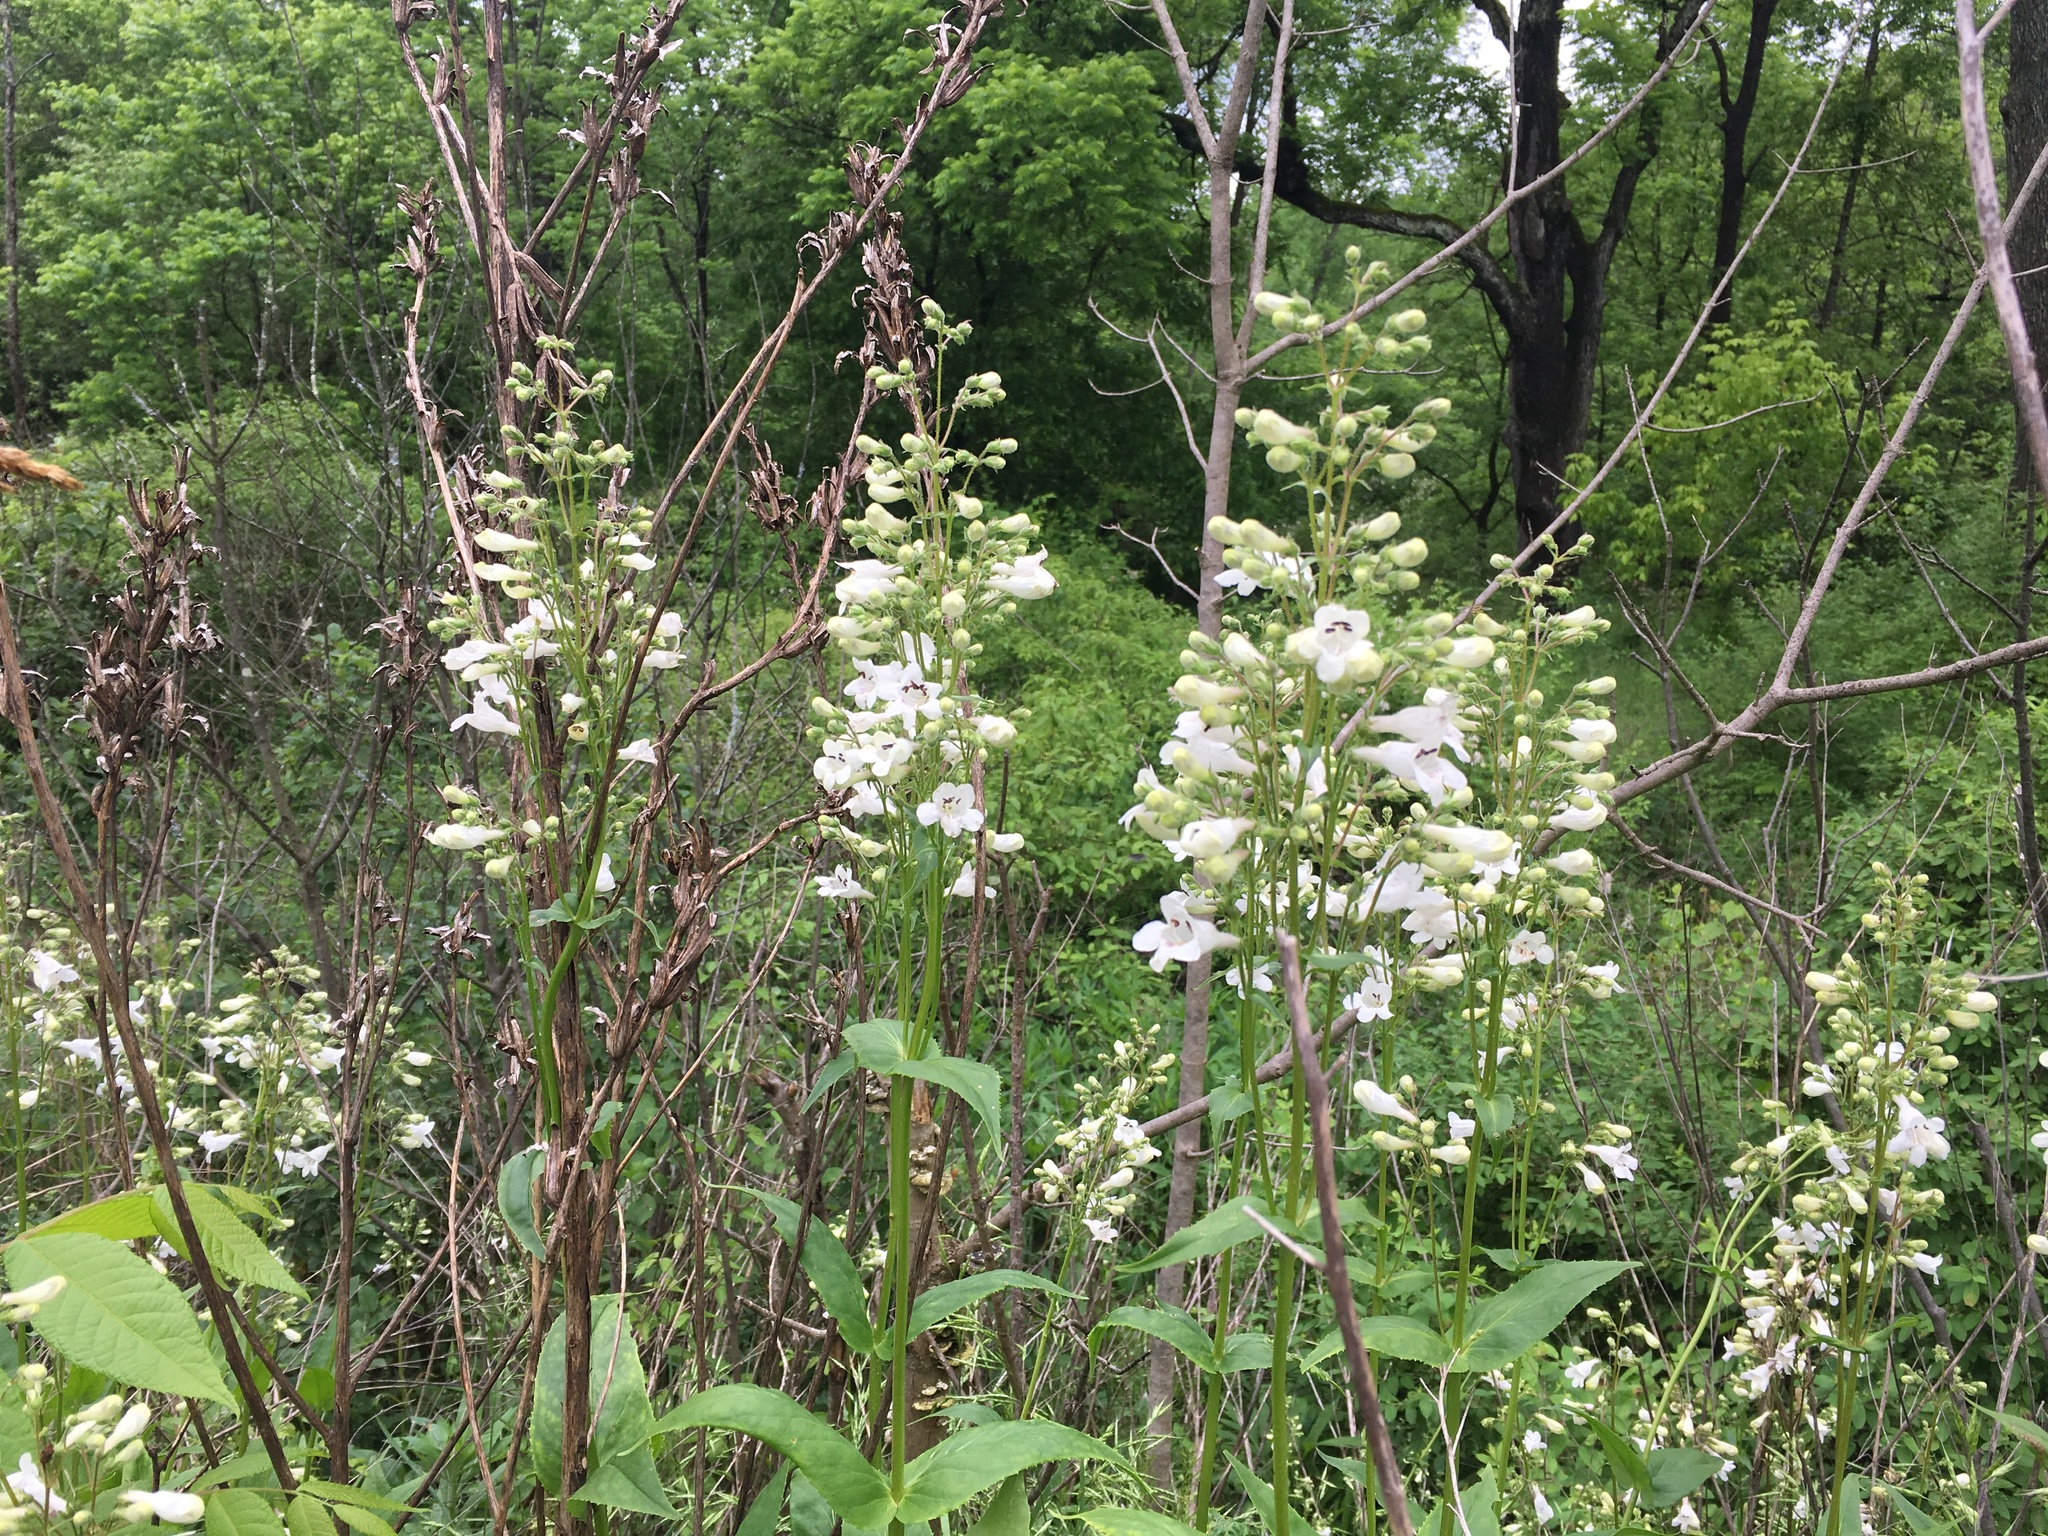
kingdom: Plantae
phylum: Tracheophyta
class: Magnoliopsida
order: Lamiales
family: Plantaginaceae
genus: Penstemon
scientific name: Penstemon digitalis
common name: Foxglove beardtongue
